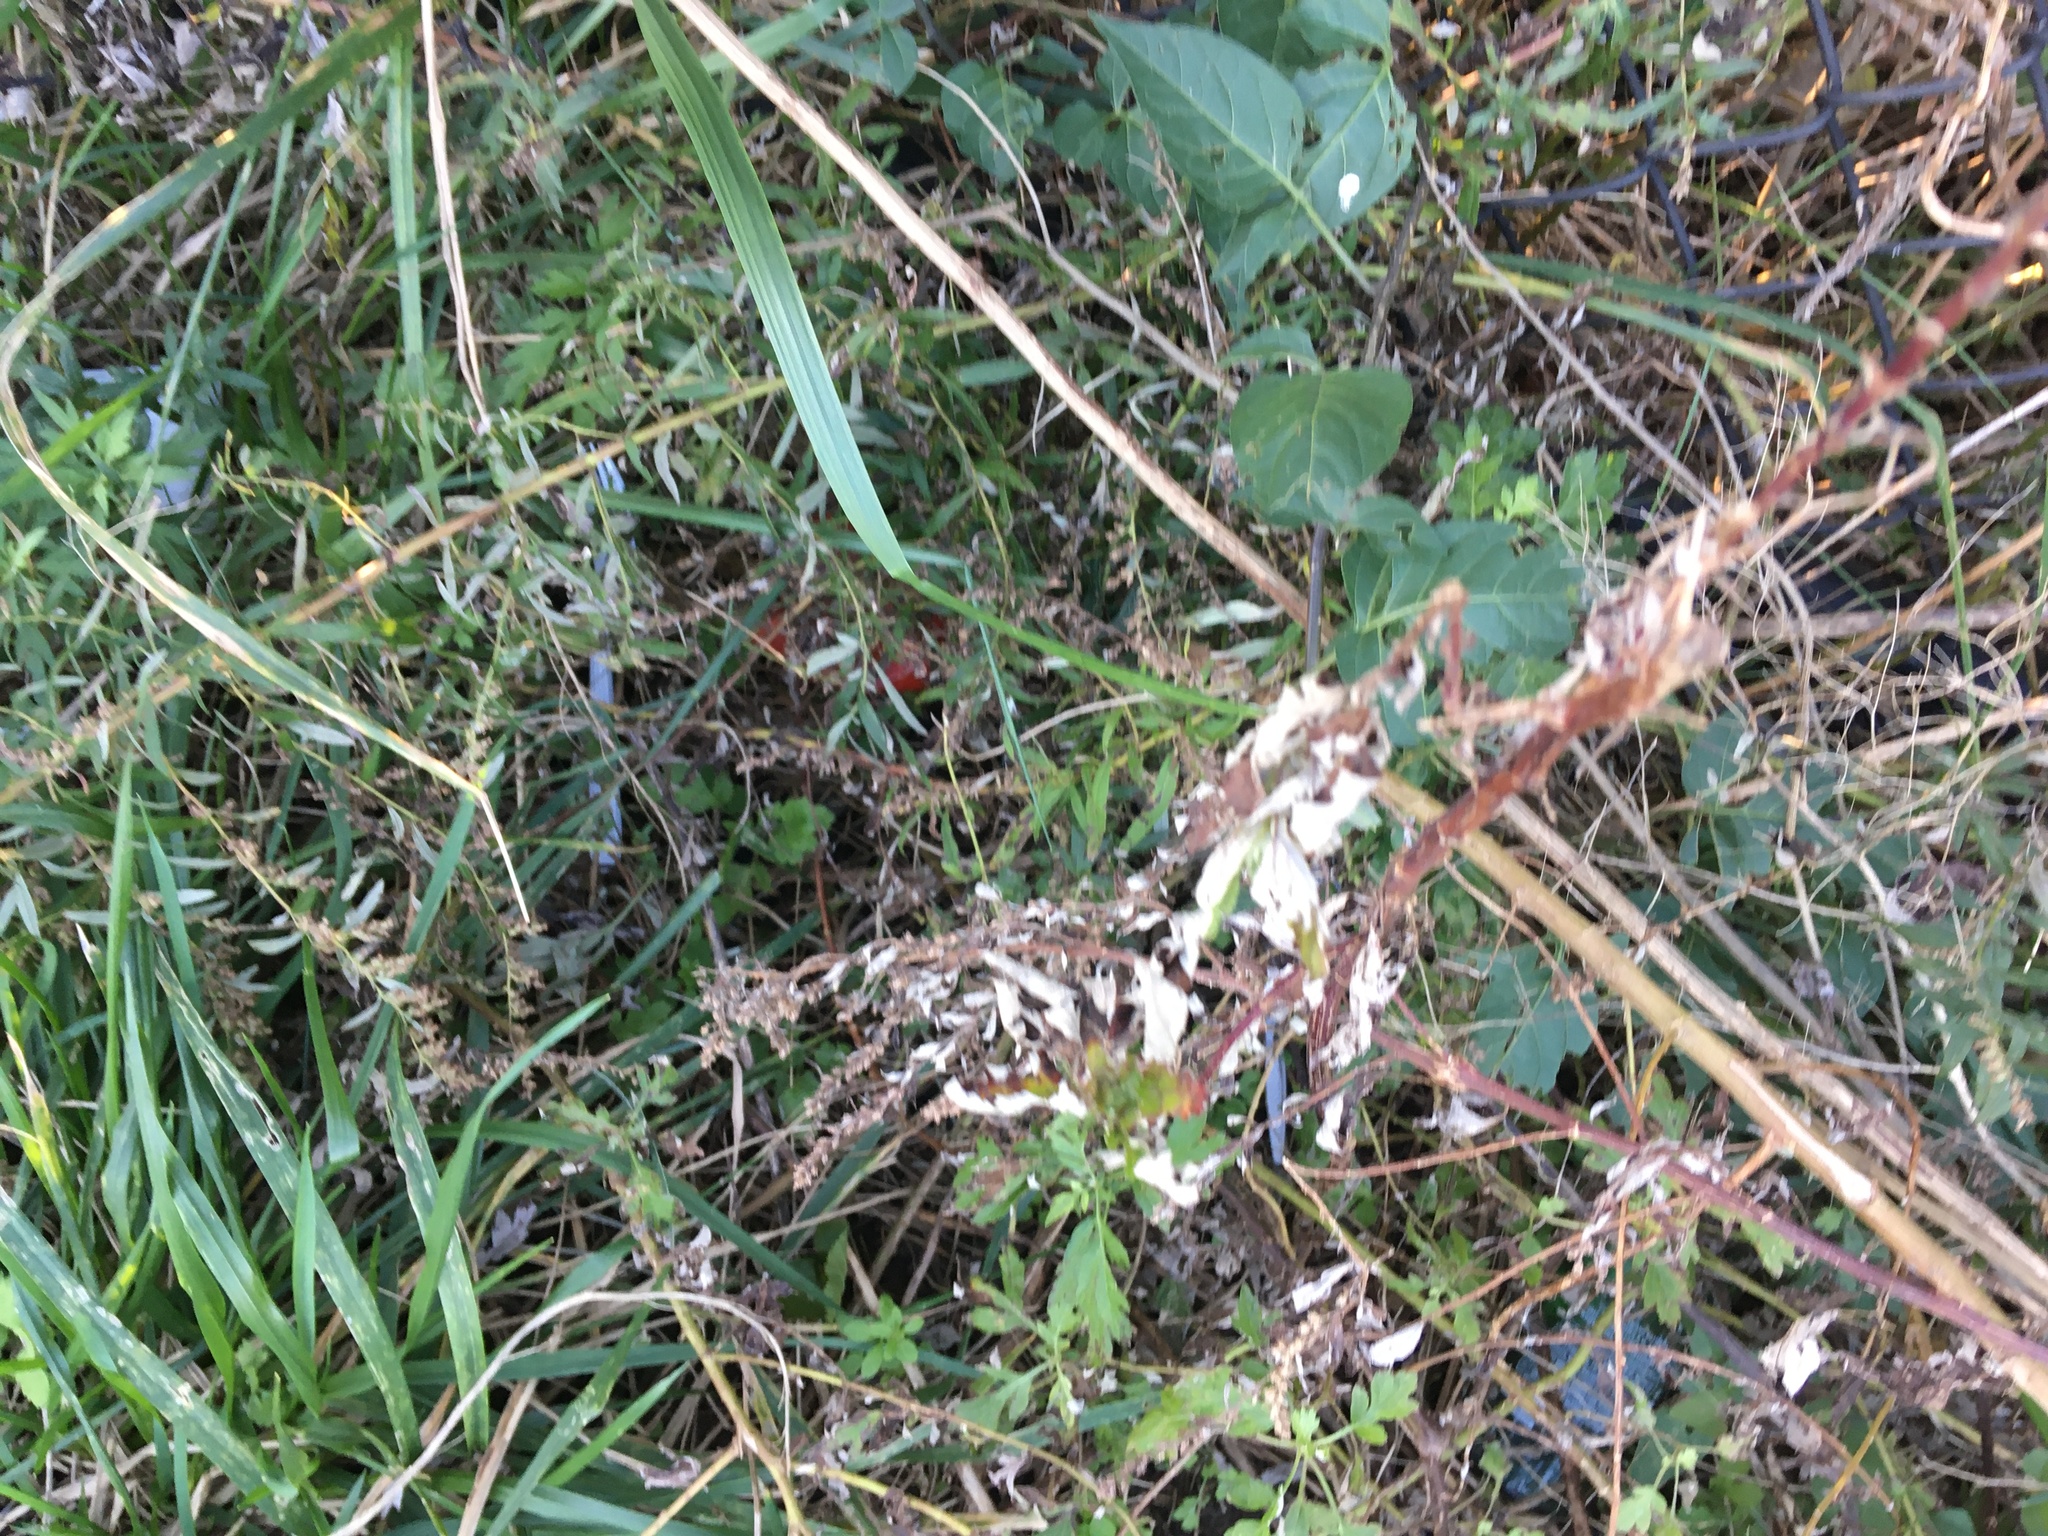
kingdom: Plantae
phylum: Tracheophyta
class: Magnoliopsida
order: Asterales
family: Asteraceae
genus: Artemisia
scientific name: Artemisia vulgaris
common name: Mugwort
